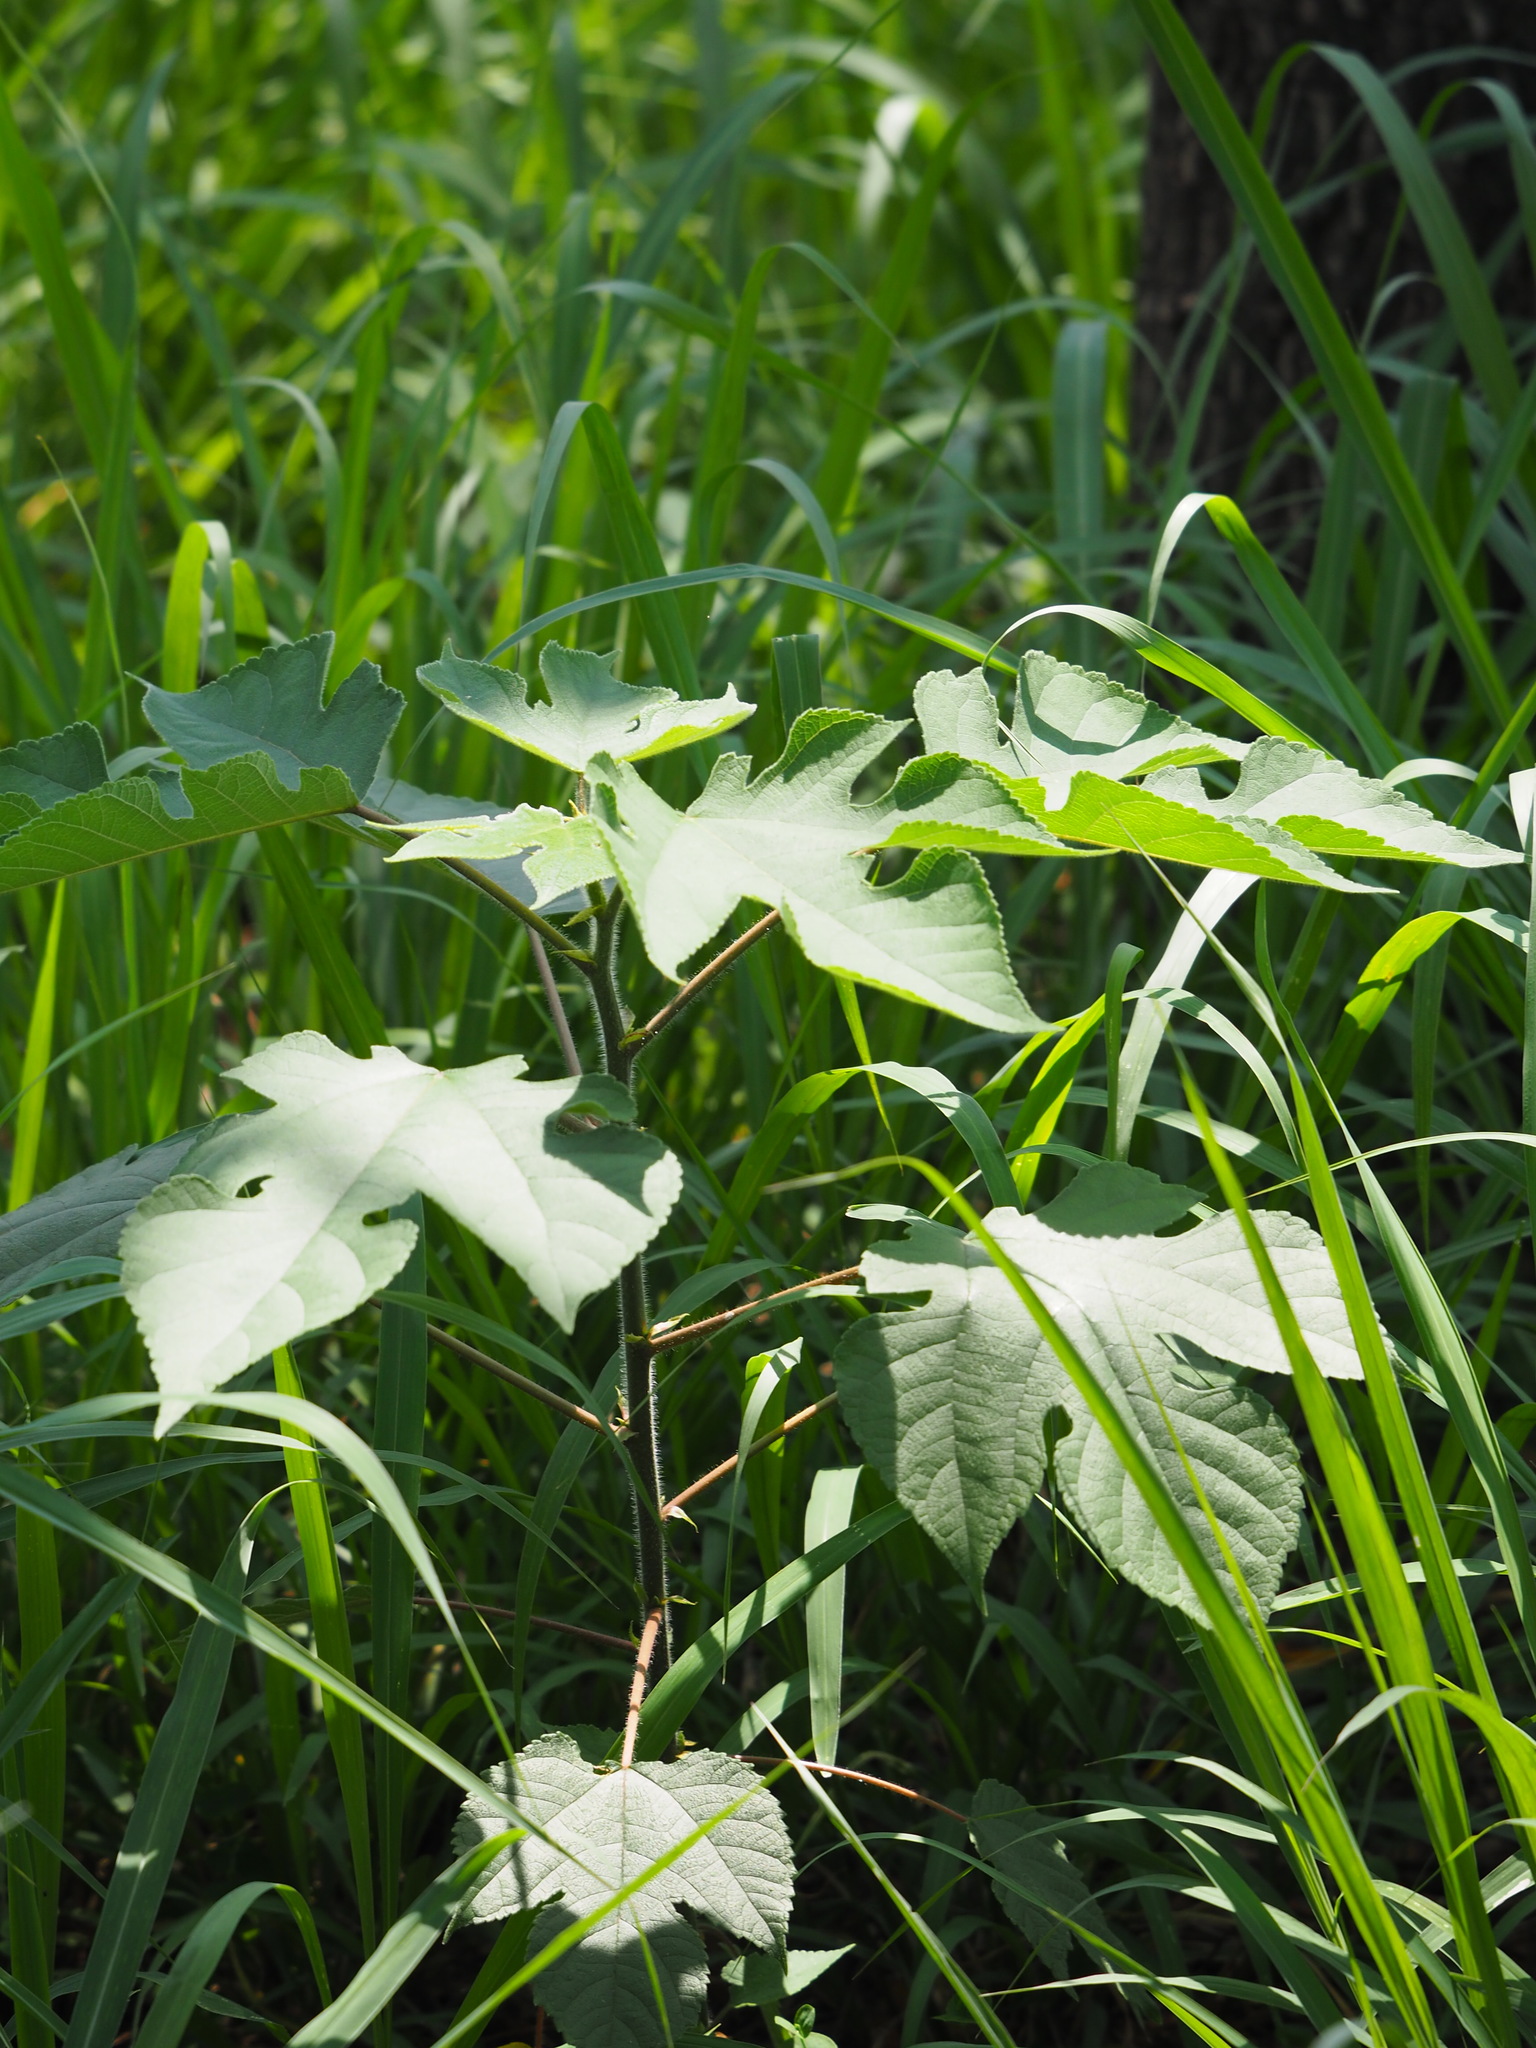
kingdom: Plantae
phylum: Tracheophyta
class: Magnoliopsida
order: Rosales
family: Moraceae
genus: Broussonetia
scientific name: Broussonetia papyrifera
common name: Paper mulberry
